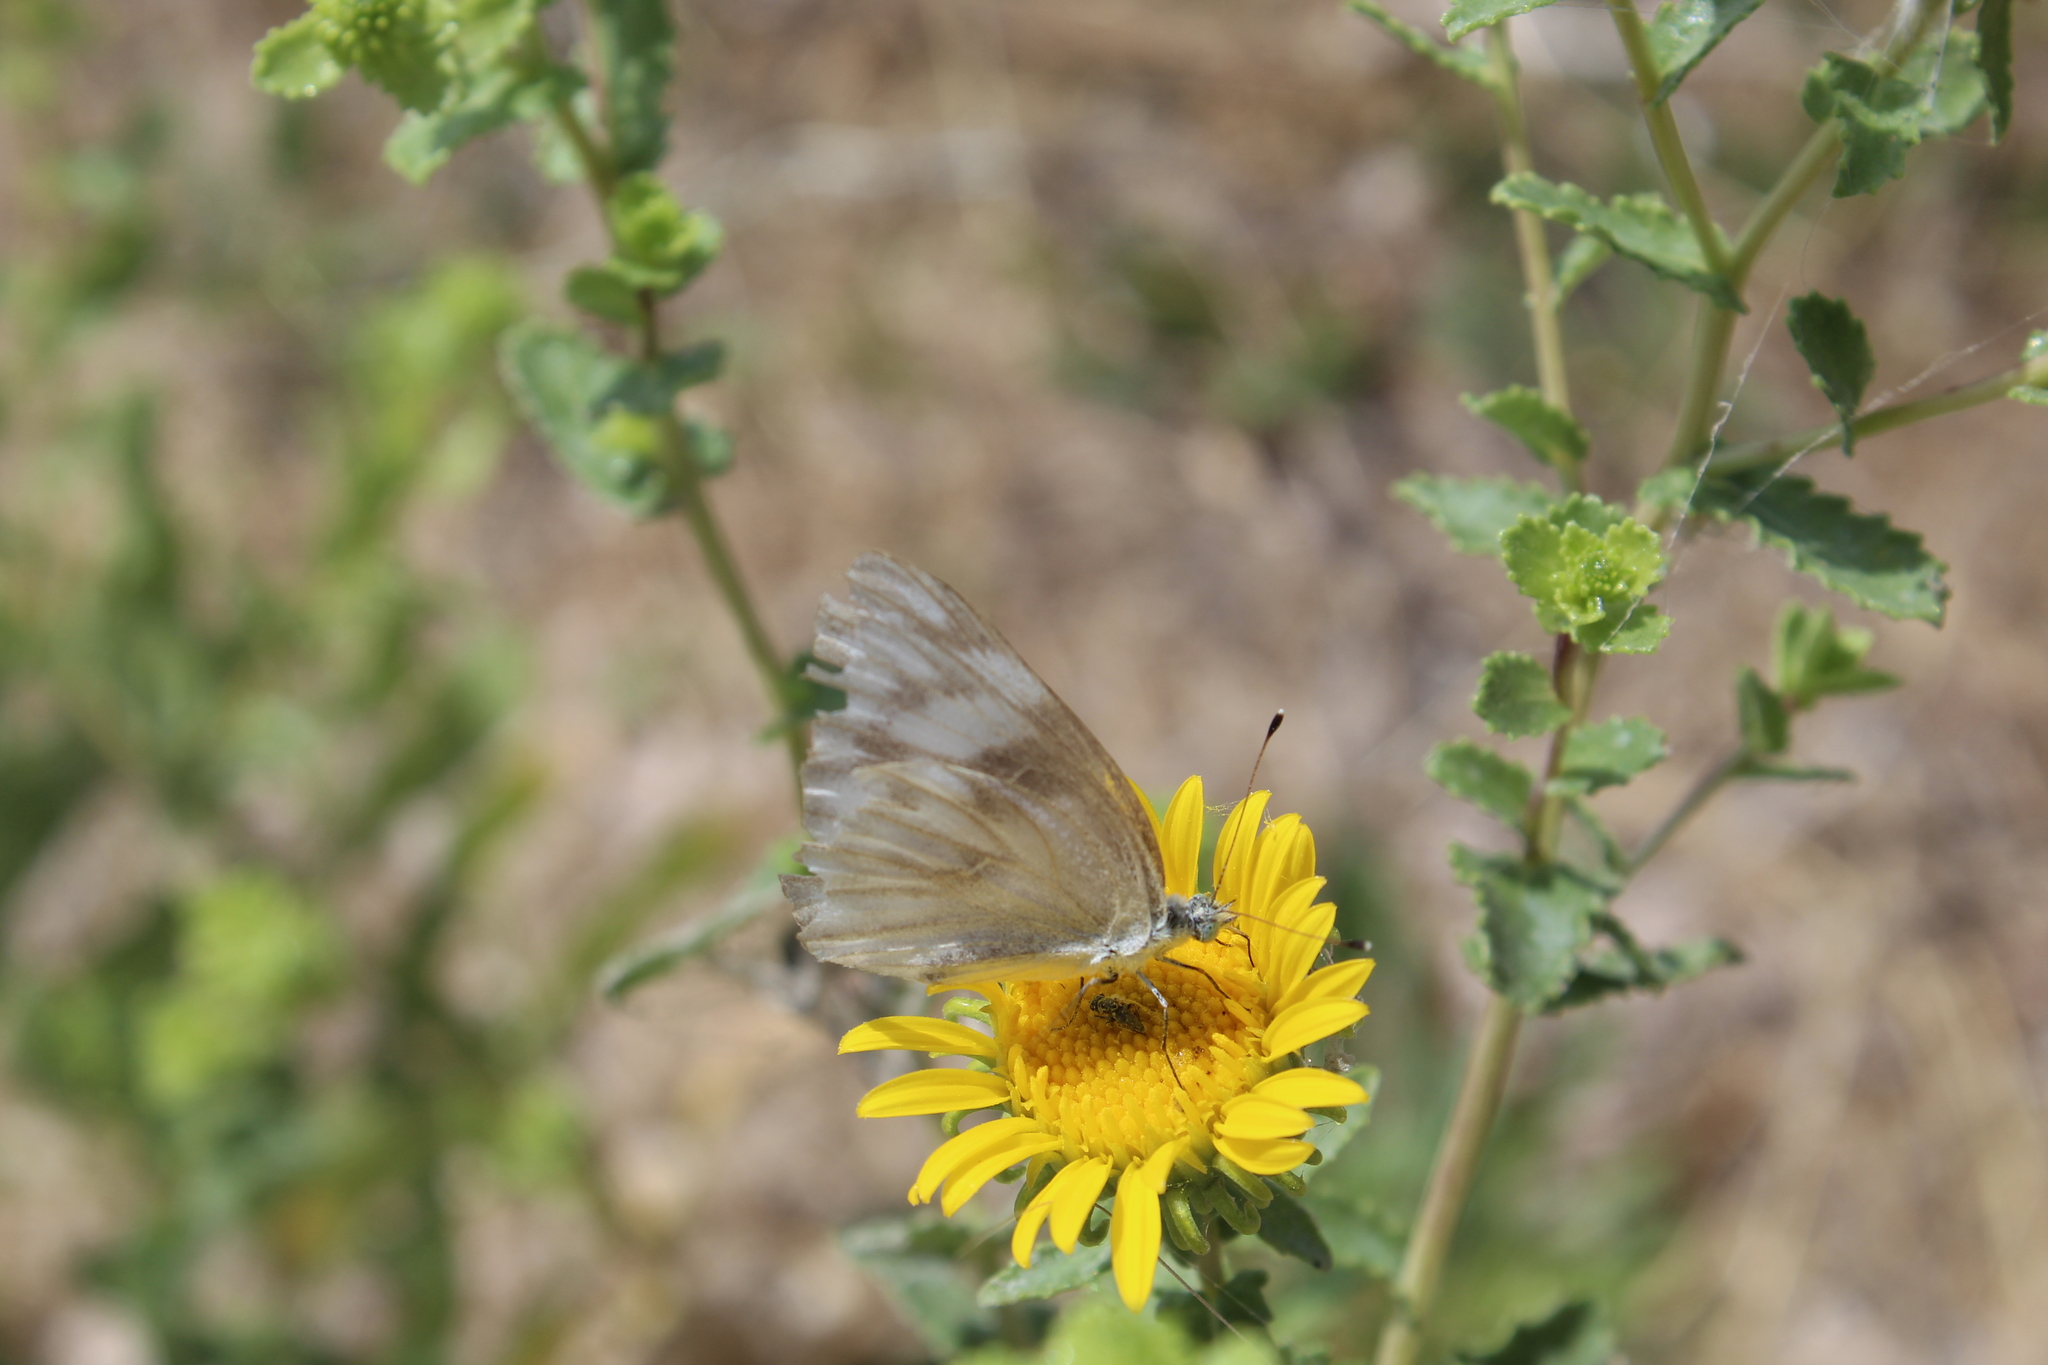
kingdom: Animalia
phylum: Arthropoda
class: Insecta
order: Lepidoptera
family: Pieridae
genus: Pontia
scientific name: Pontia protodice
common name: Checkered white
